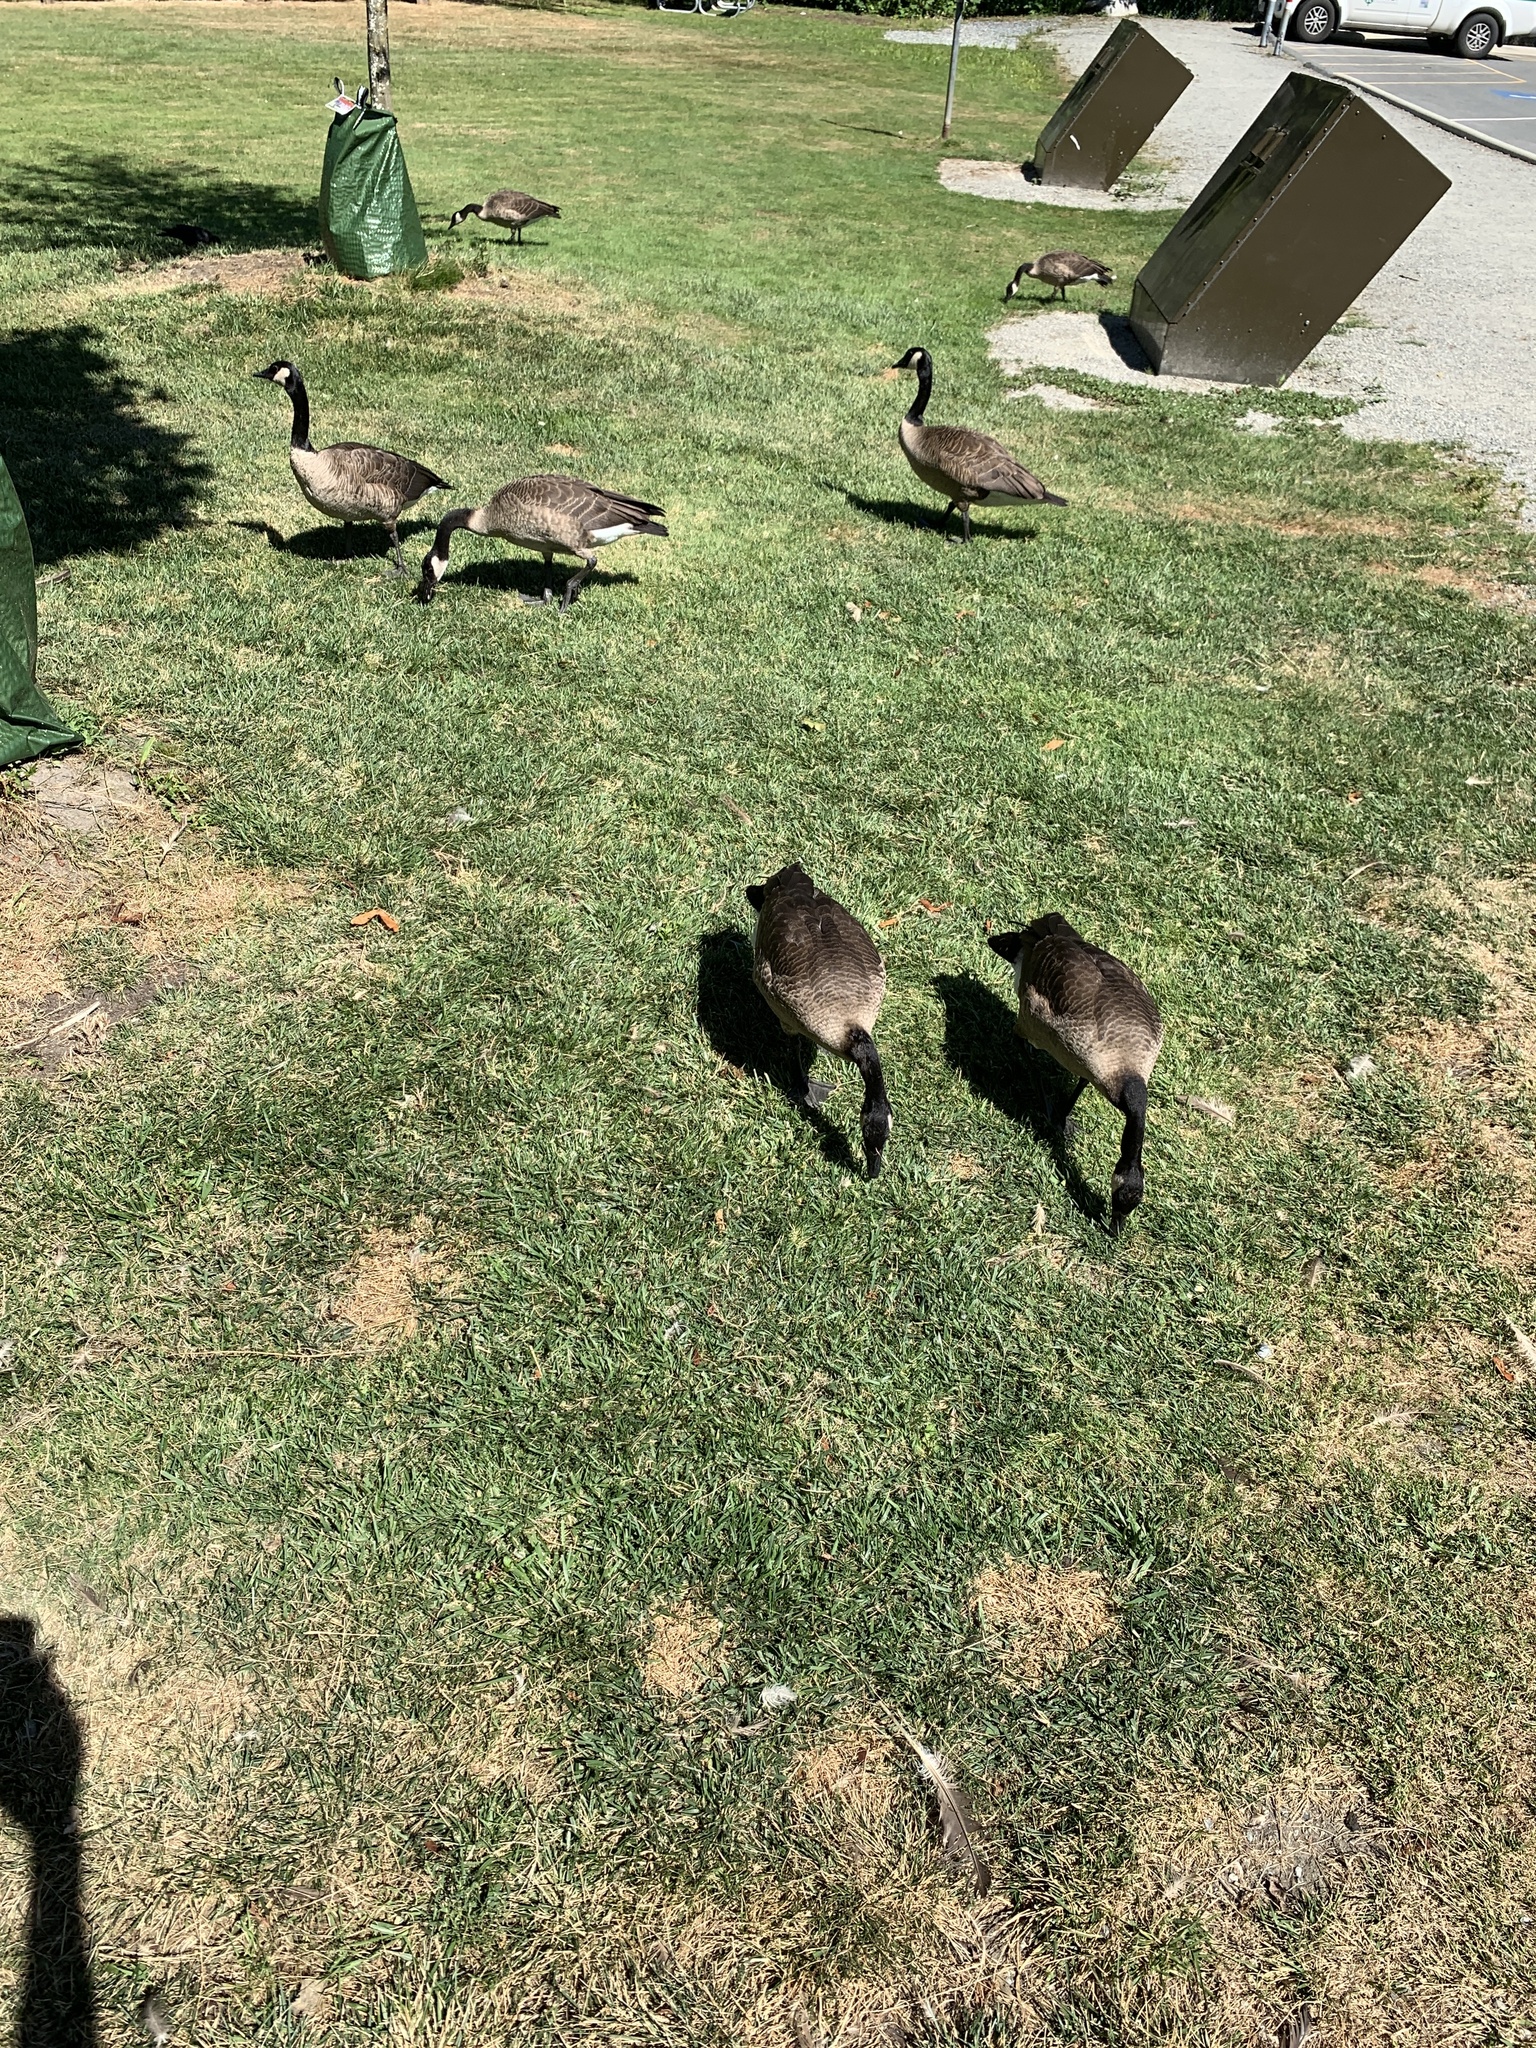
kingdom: Animalia
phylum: Chordata
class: Aves
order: Anseriformes
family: Anatidae
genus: Branta
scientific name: Branta canadensis
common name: Canada goose
